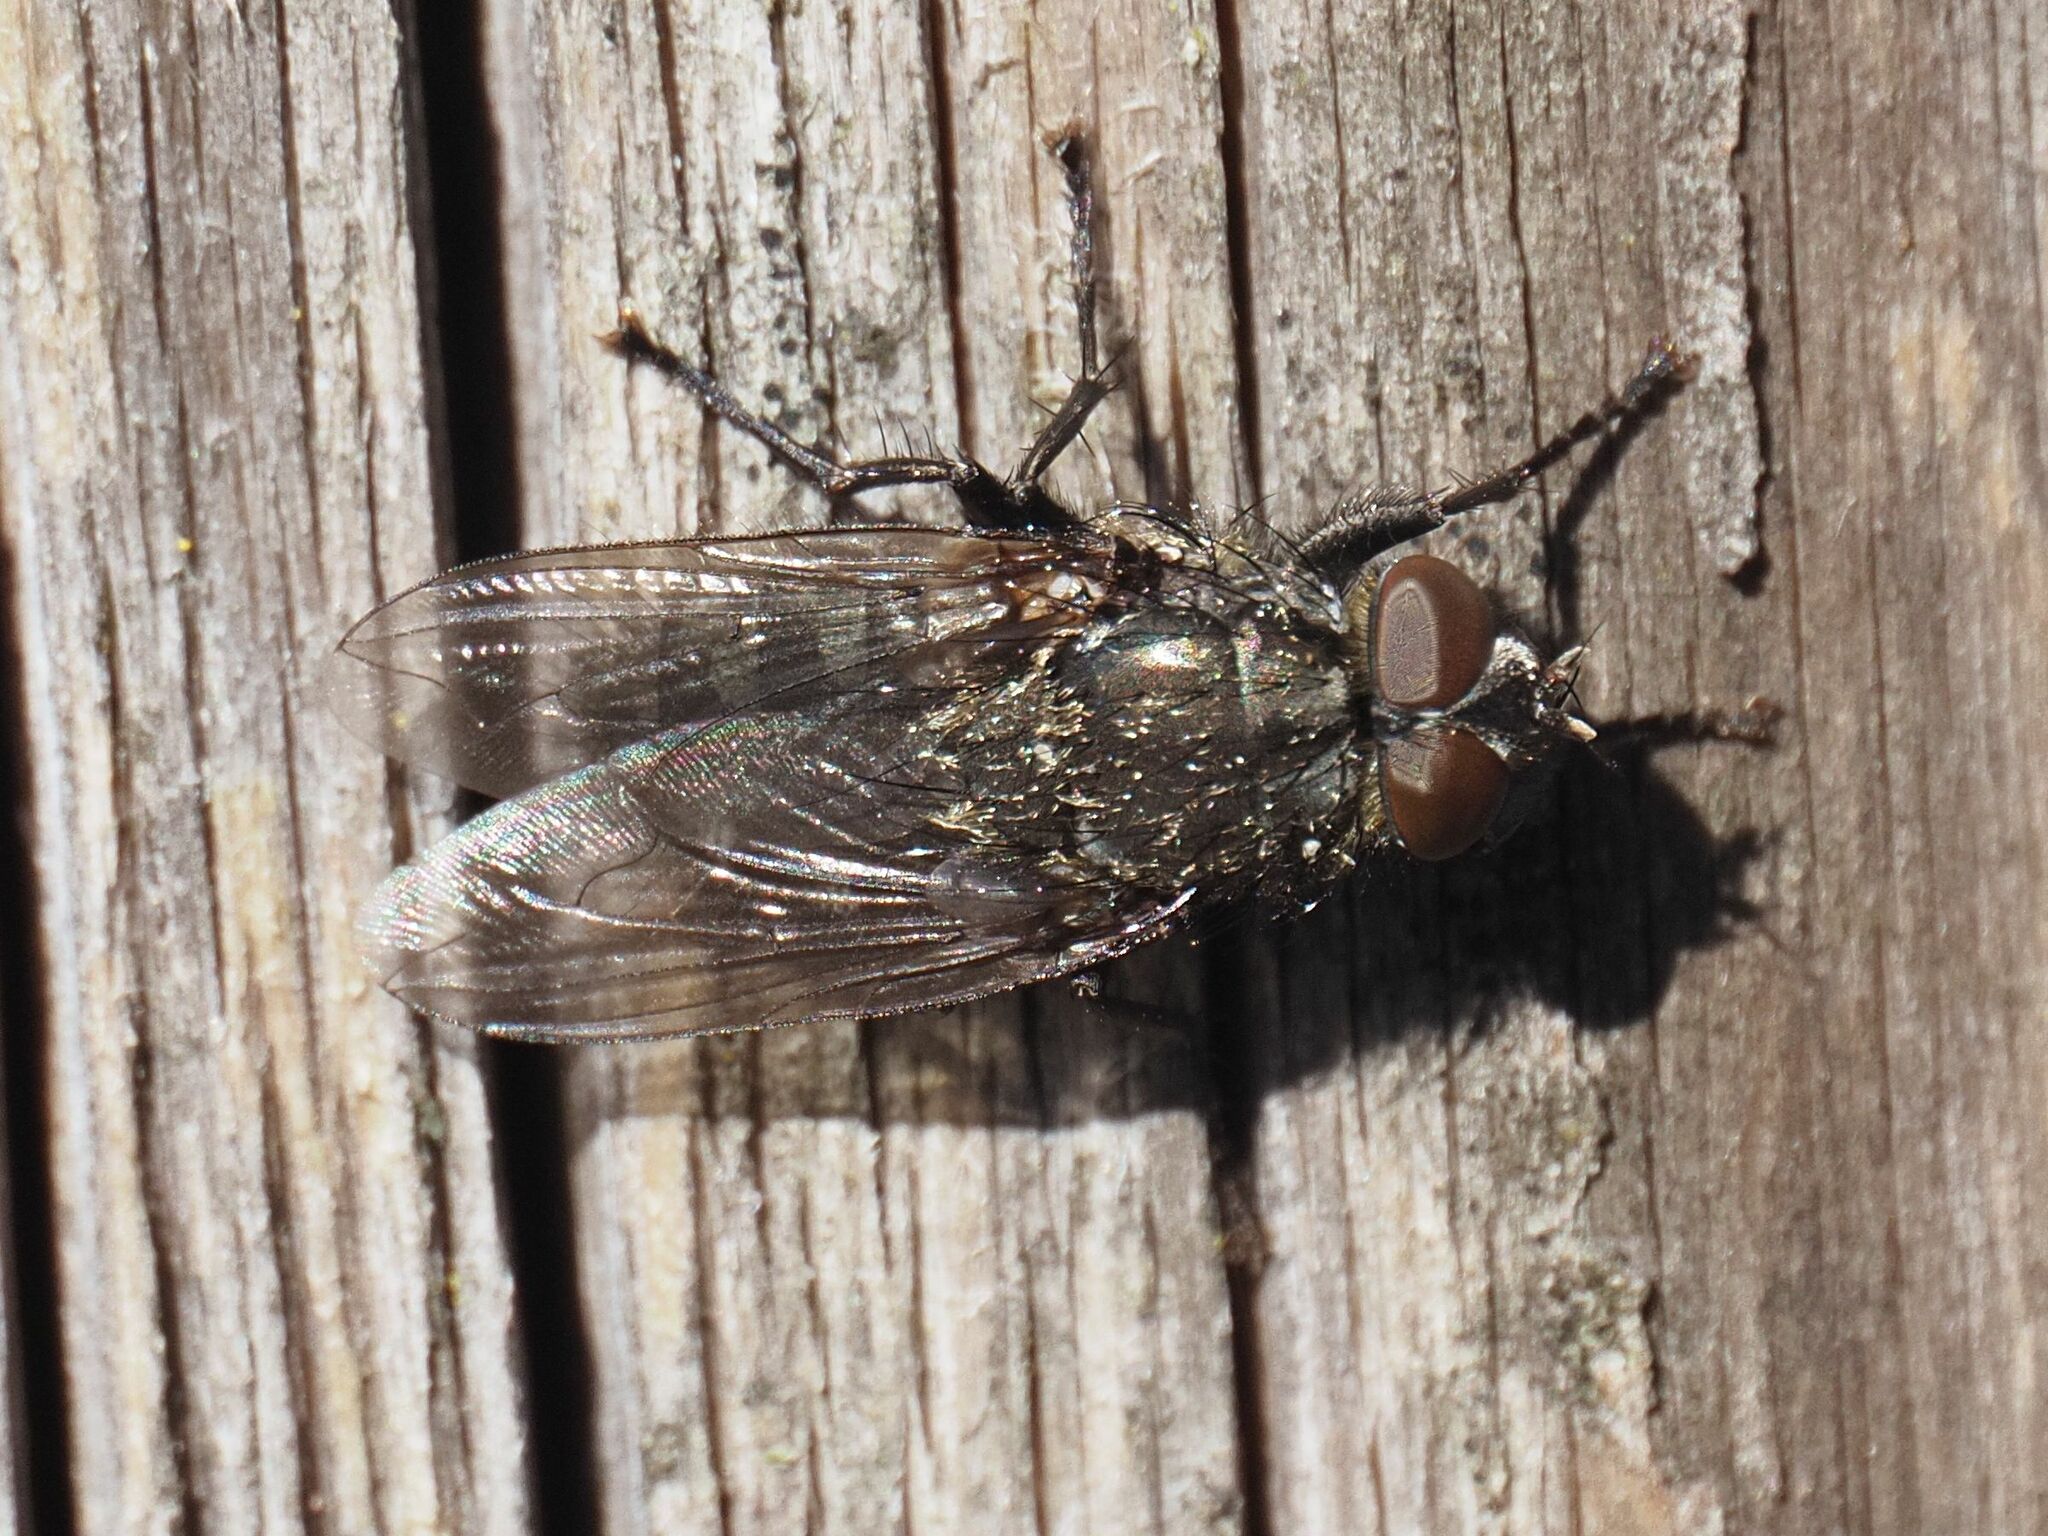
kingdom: Animalia
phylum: Arthropoda
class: Insecta
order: Diptera
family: Polleniidae
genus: Pollenia
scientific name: Pollenia vagabunda
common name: Vagabund cluster fly
